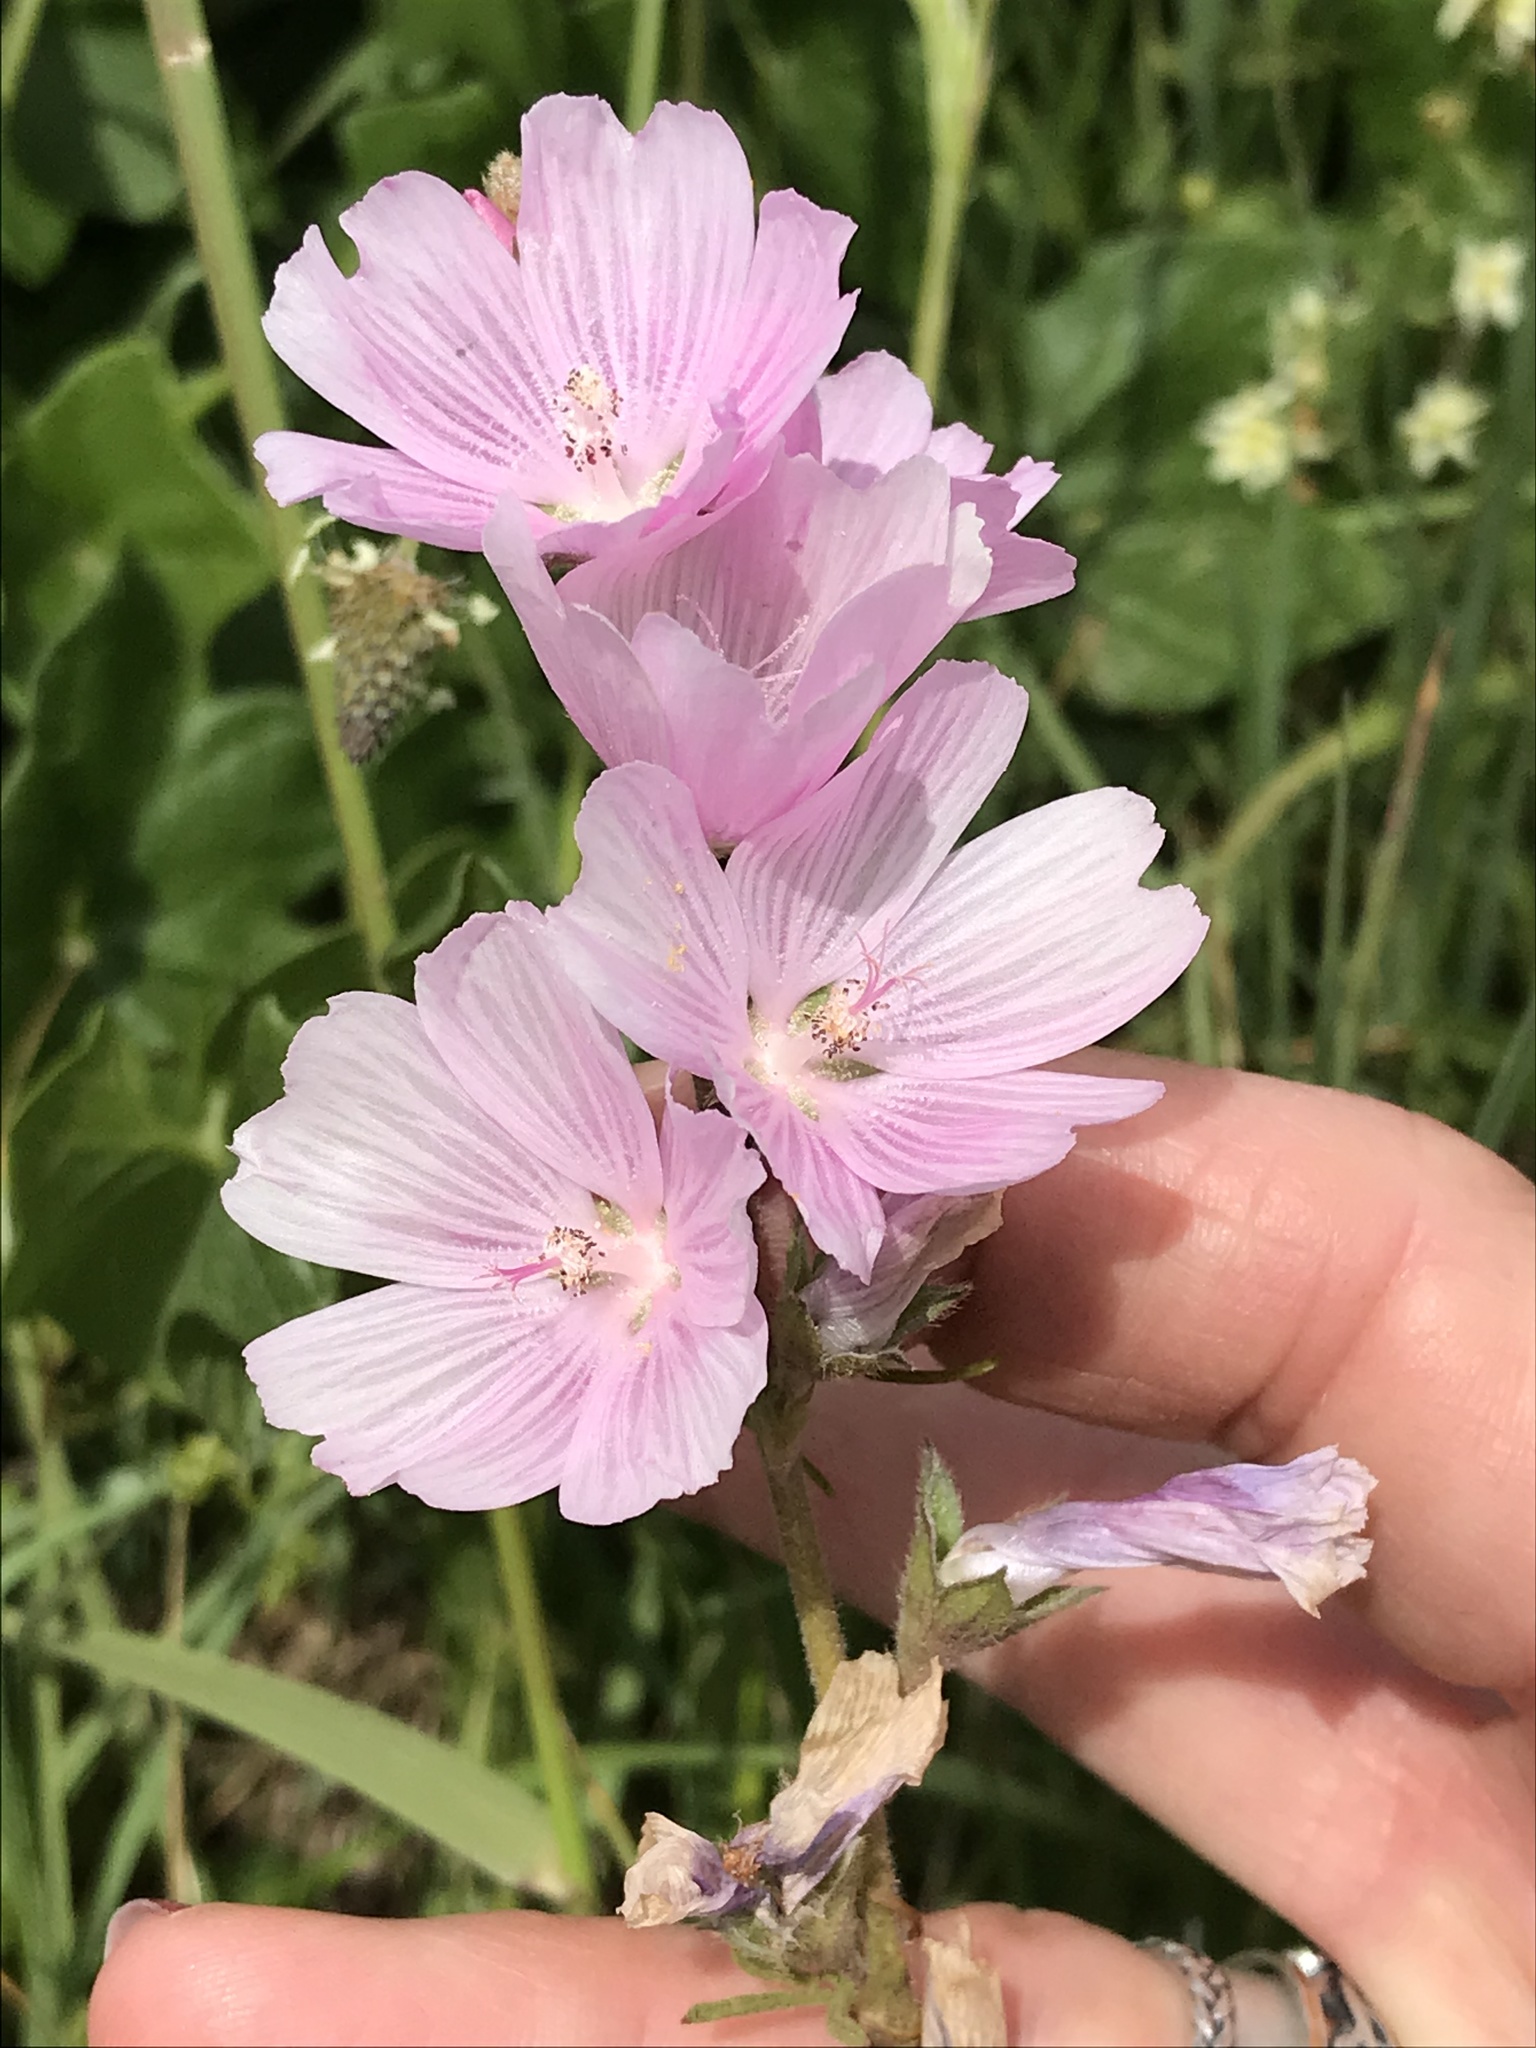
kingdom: Plantae
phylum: Tracheophyta
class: Magnoliopsida
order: Malvales
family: Malvaceae
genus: Sidalcea
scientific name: Sidalcea malviflora
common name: Greek mallow
